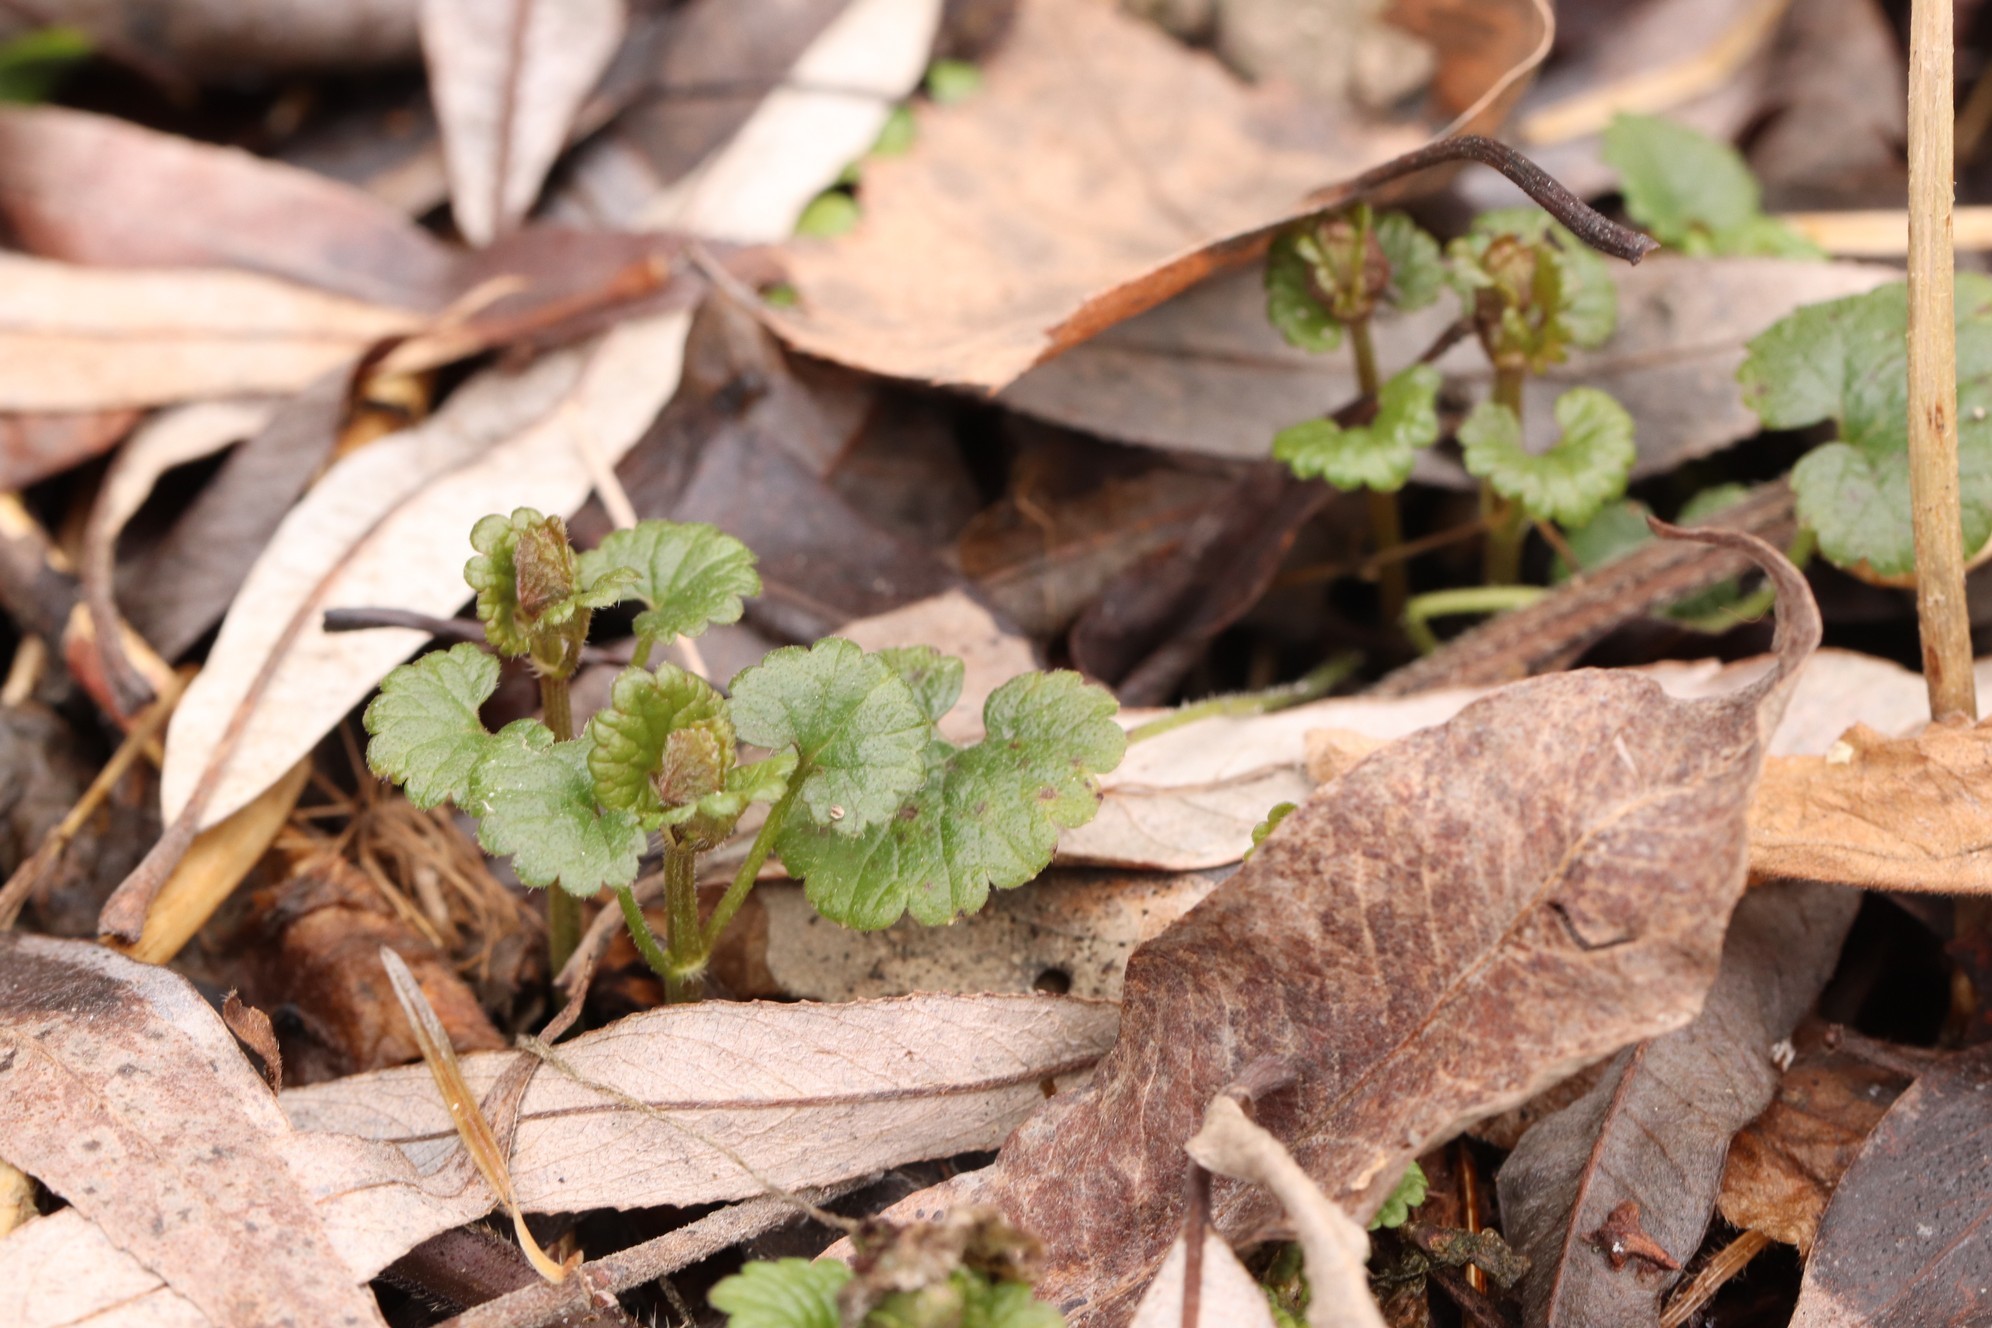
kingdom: Plantae
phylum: Tracheophyta
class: Magnoliopsida
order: Lamiales
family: Lamiaceae
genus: Glechoma
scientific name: Glechoma hederacea
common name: Ground ivy
